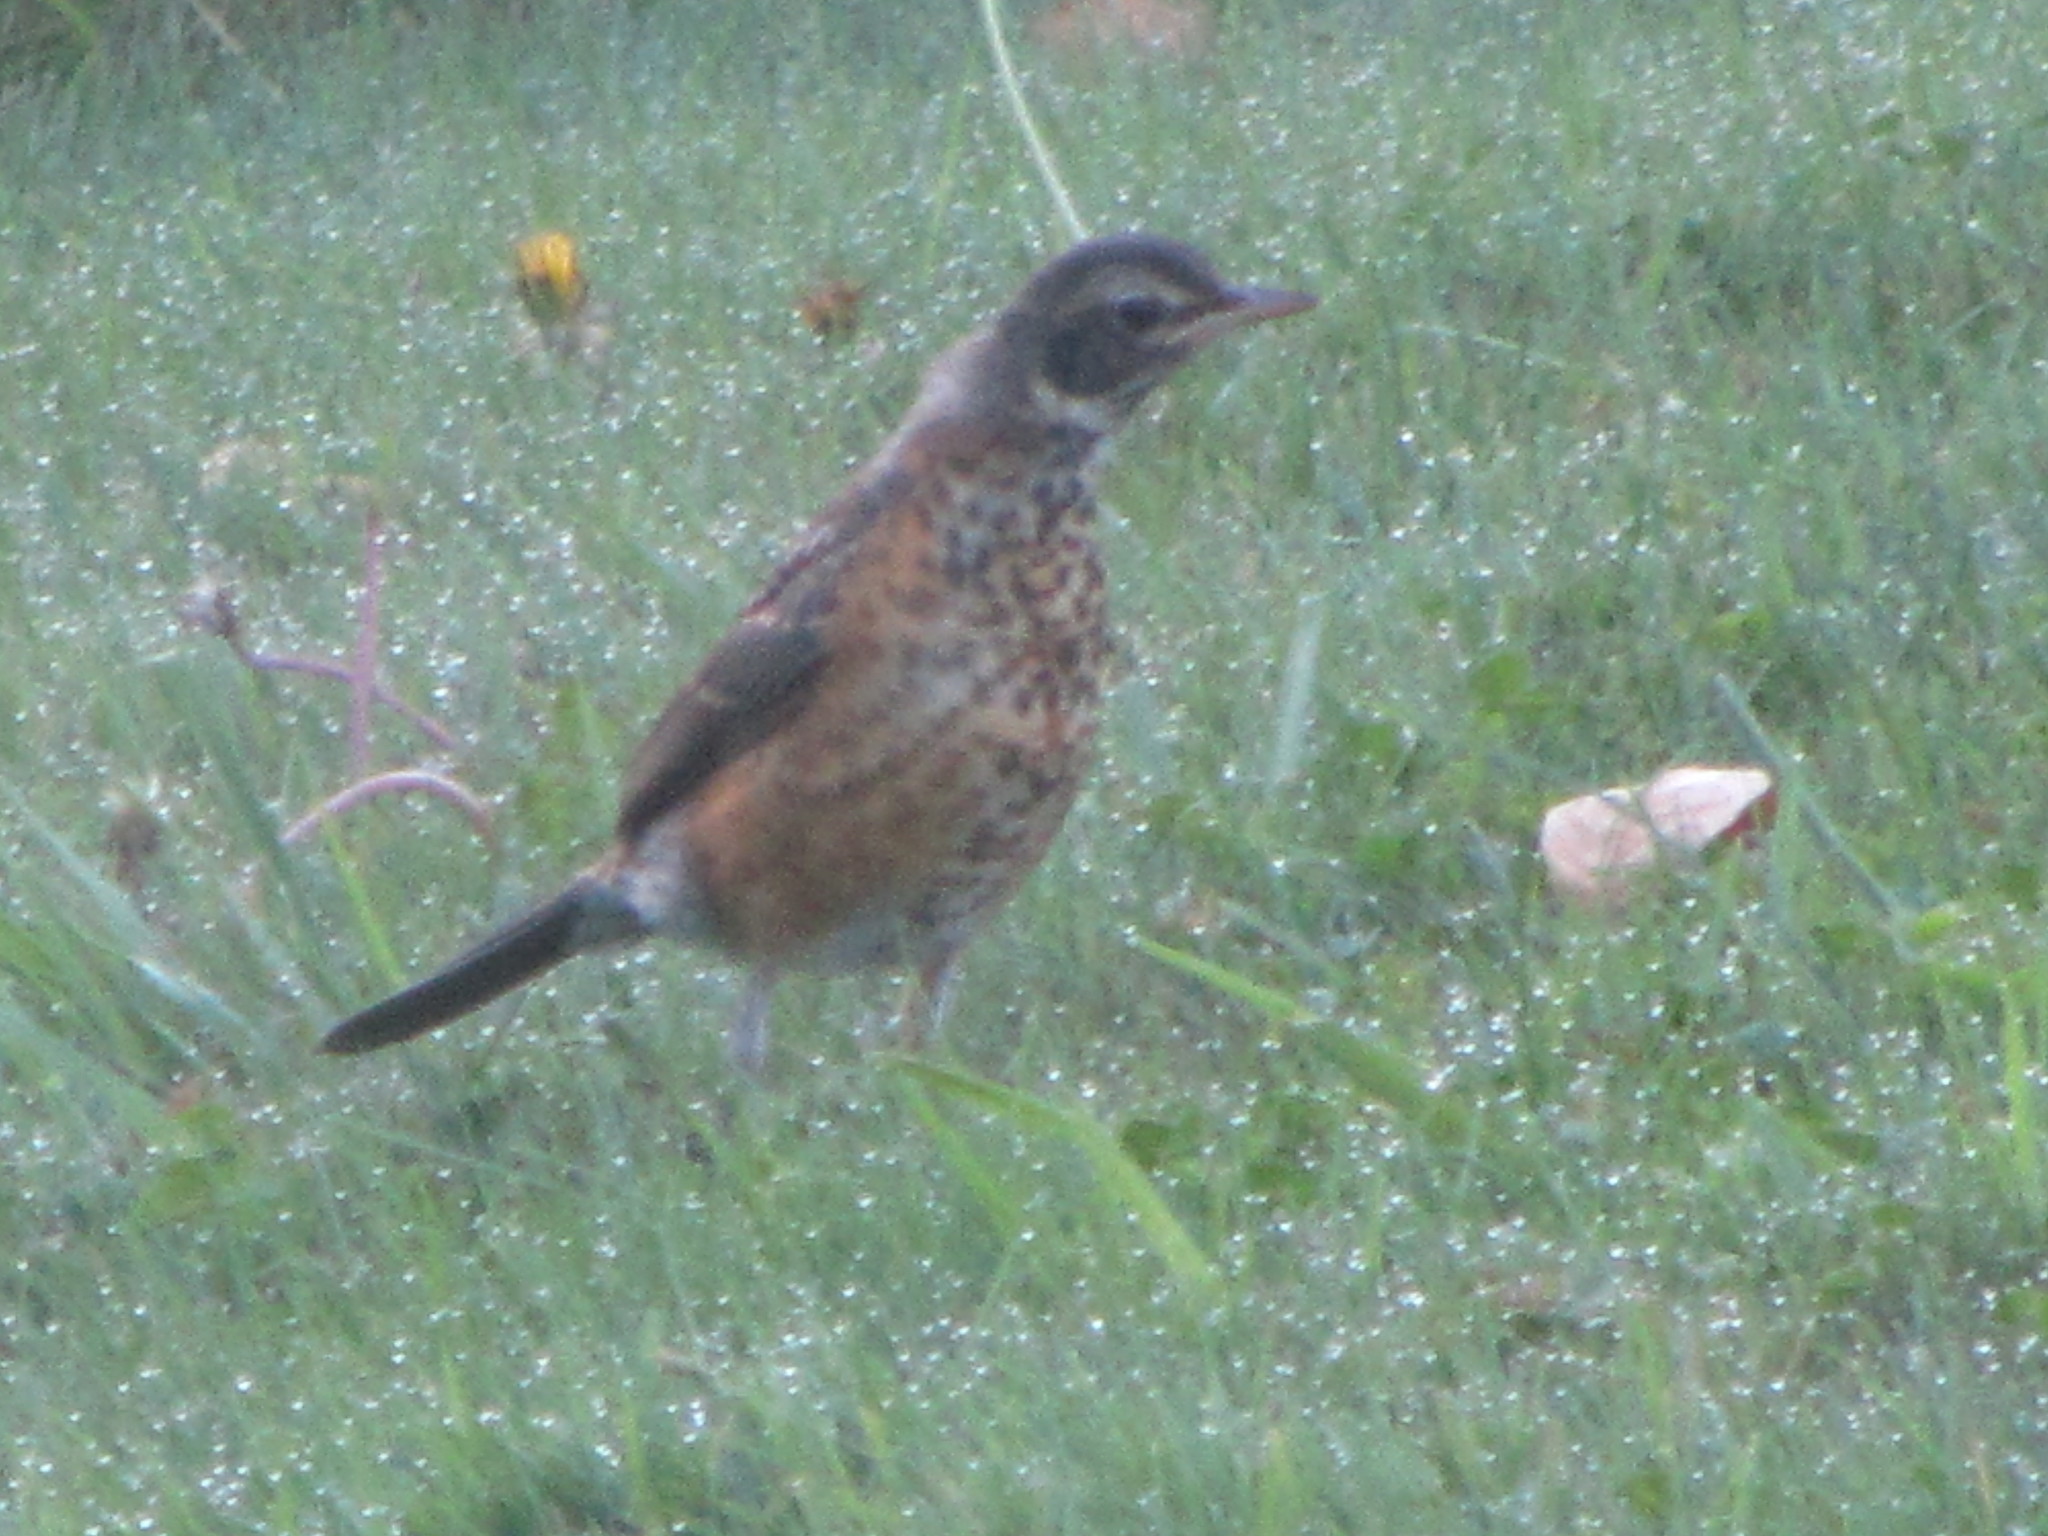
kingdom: Animalia
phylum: Chordata
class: Aves
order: Passeriformes
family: Turdidae
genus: Turdus
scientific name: Turdus migratorius
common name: American robin
